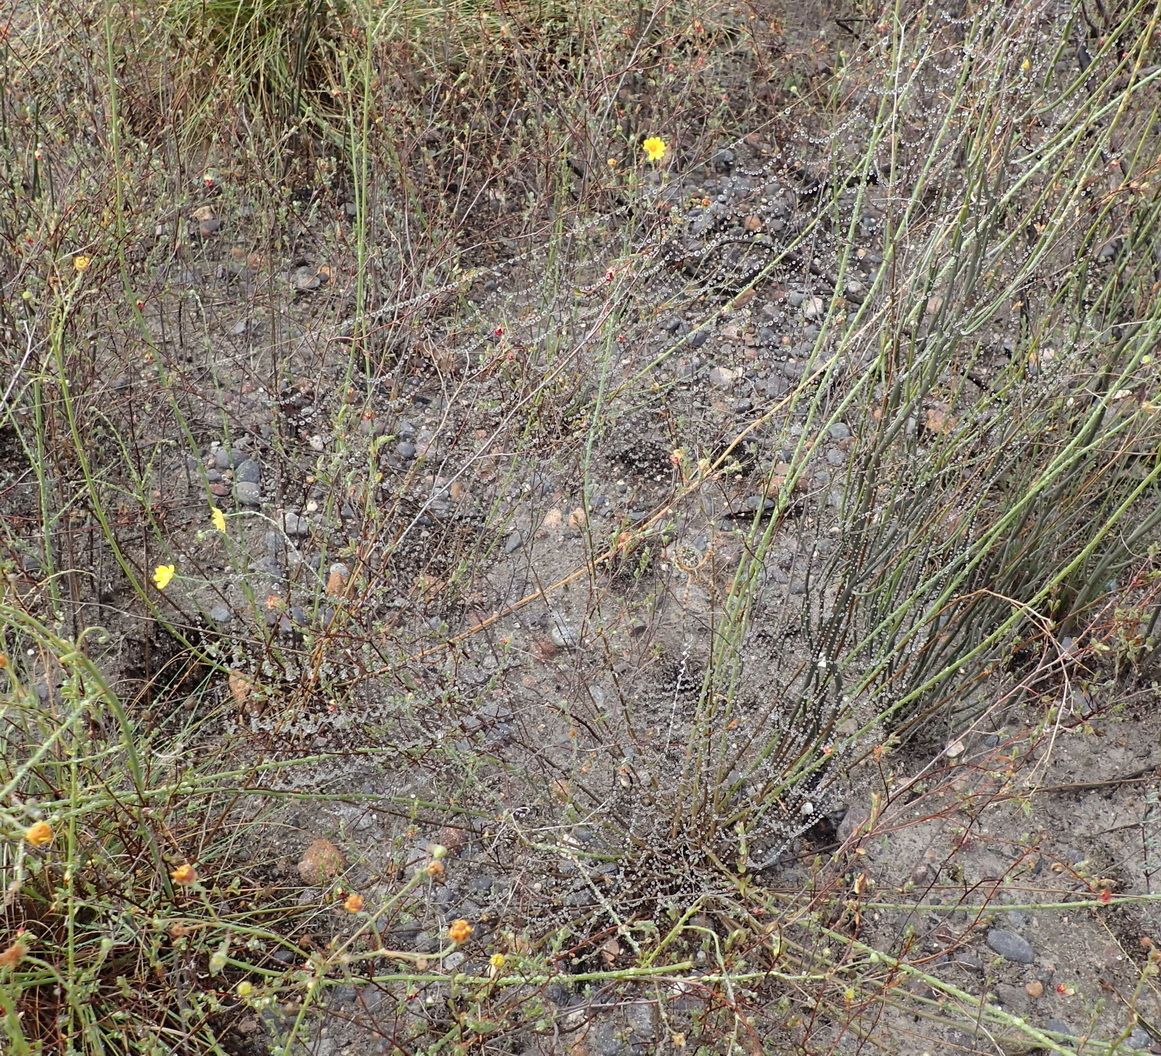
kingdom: Animalia
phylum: Arthropoda
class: Arachnida
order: Araneae
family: Araneidae
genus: Argiope
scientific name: Argiope australis
